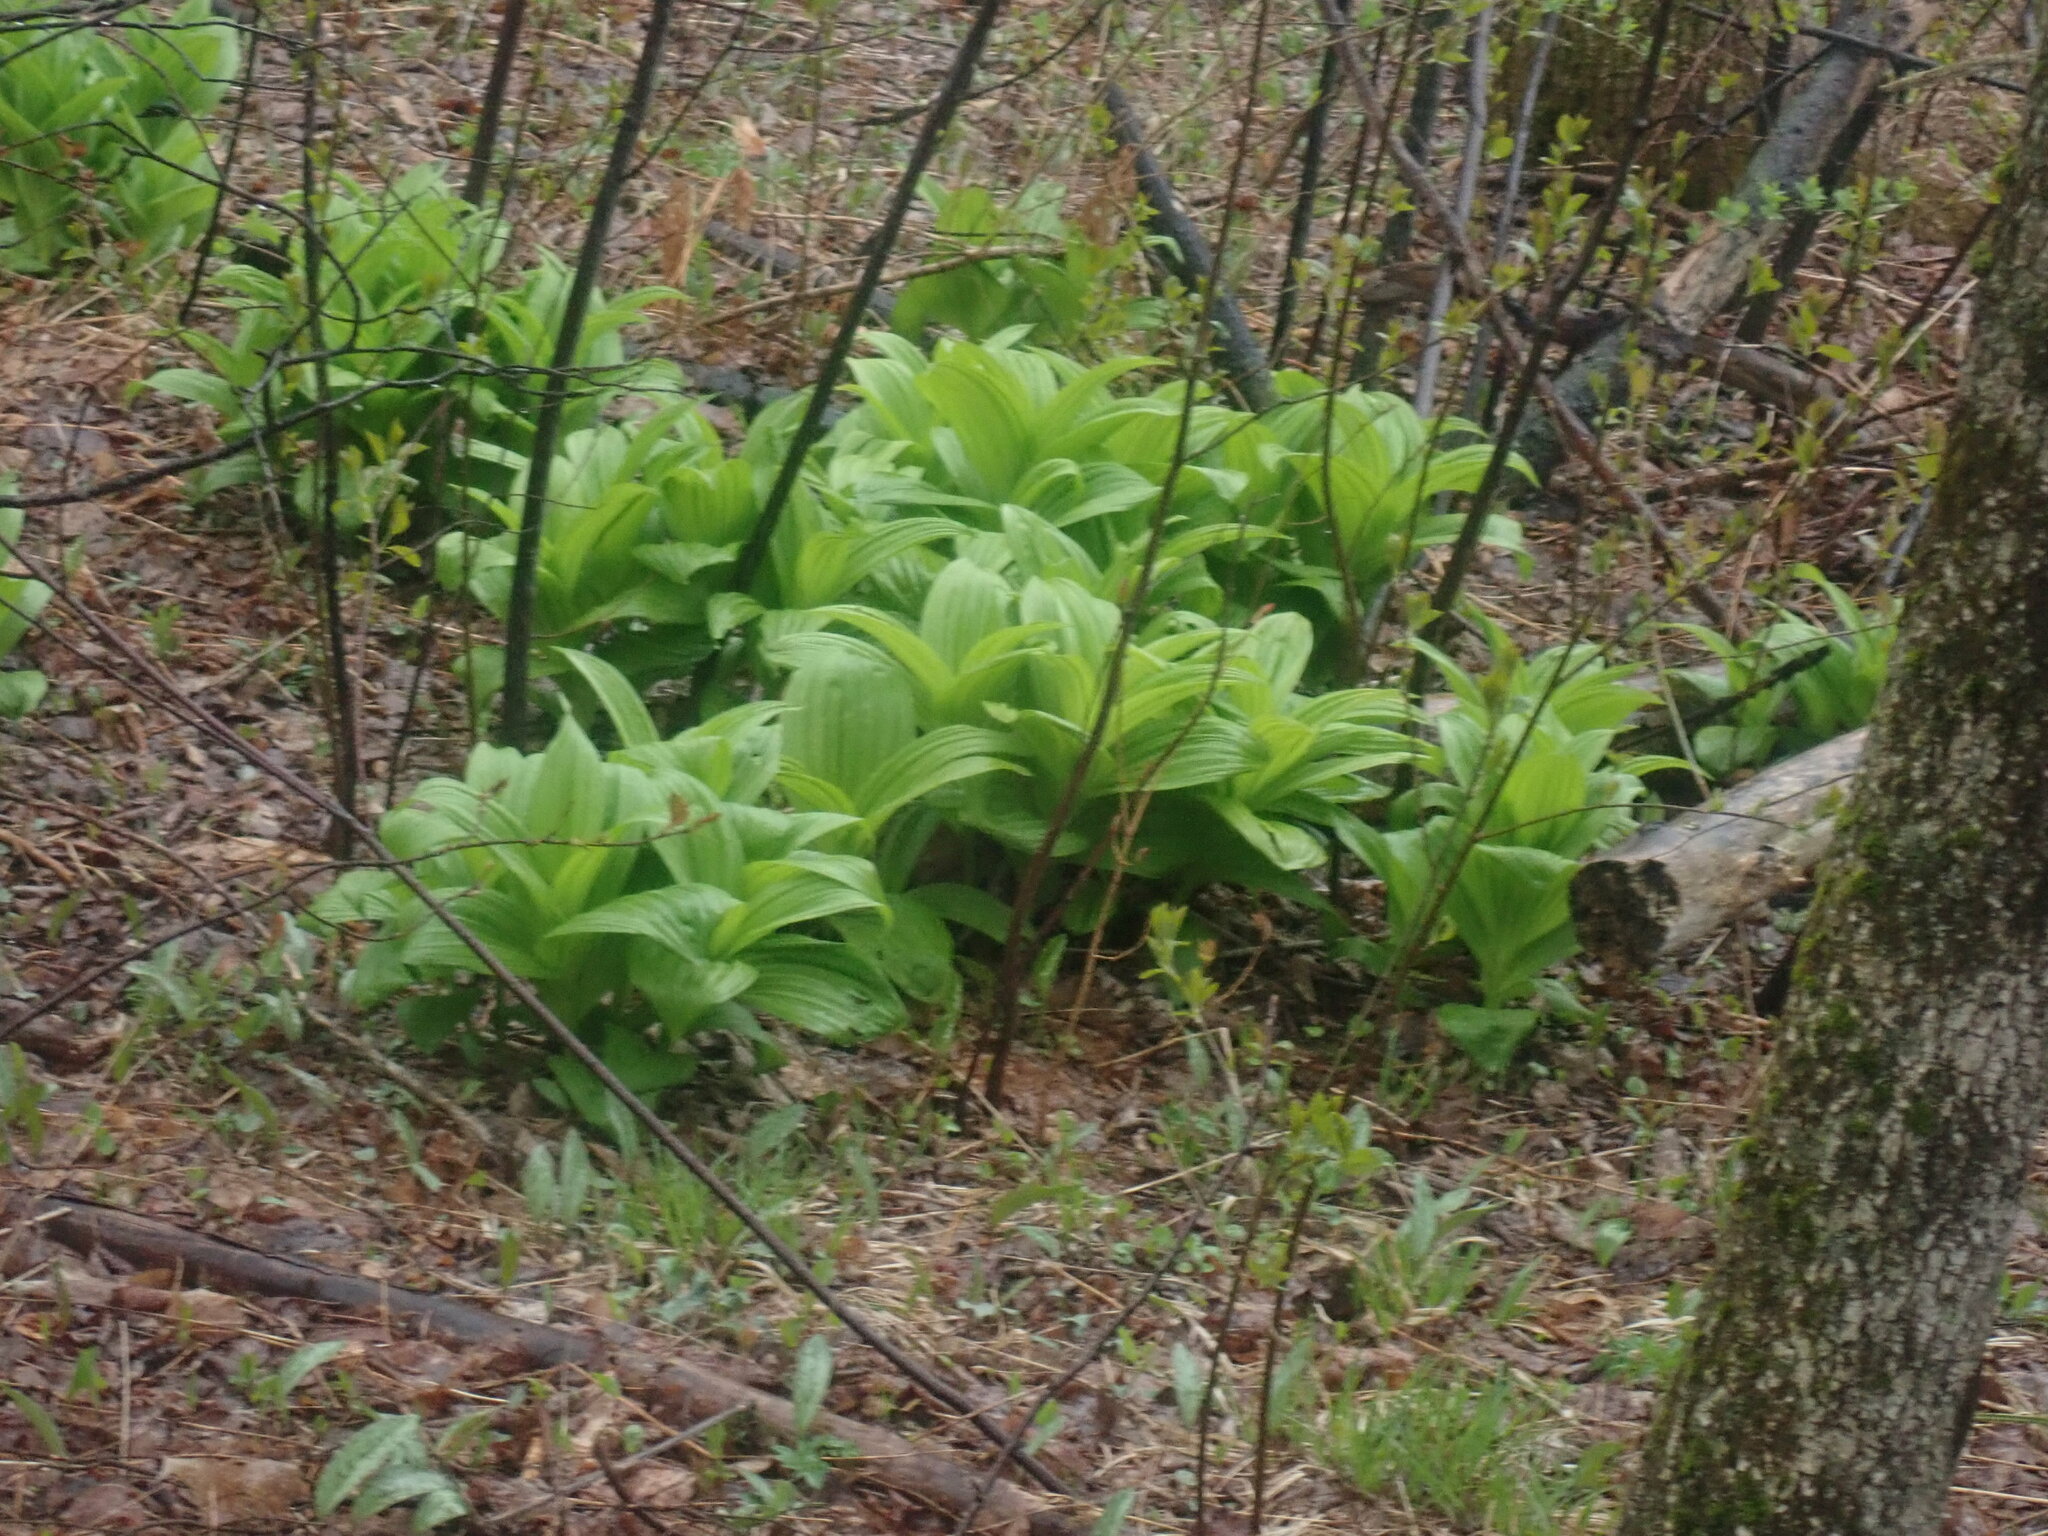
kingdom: Plantae
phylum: Tracheophyta
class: Liliopsida
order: Liliales
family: Melanthiaceae
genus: Veratrum
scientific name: Veratrum viride
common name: American false hellebore
